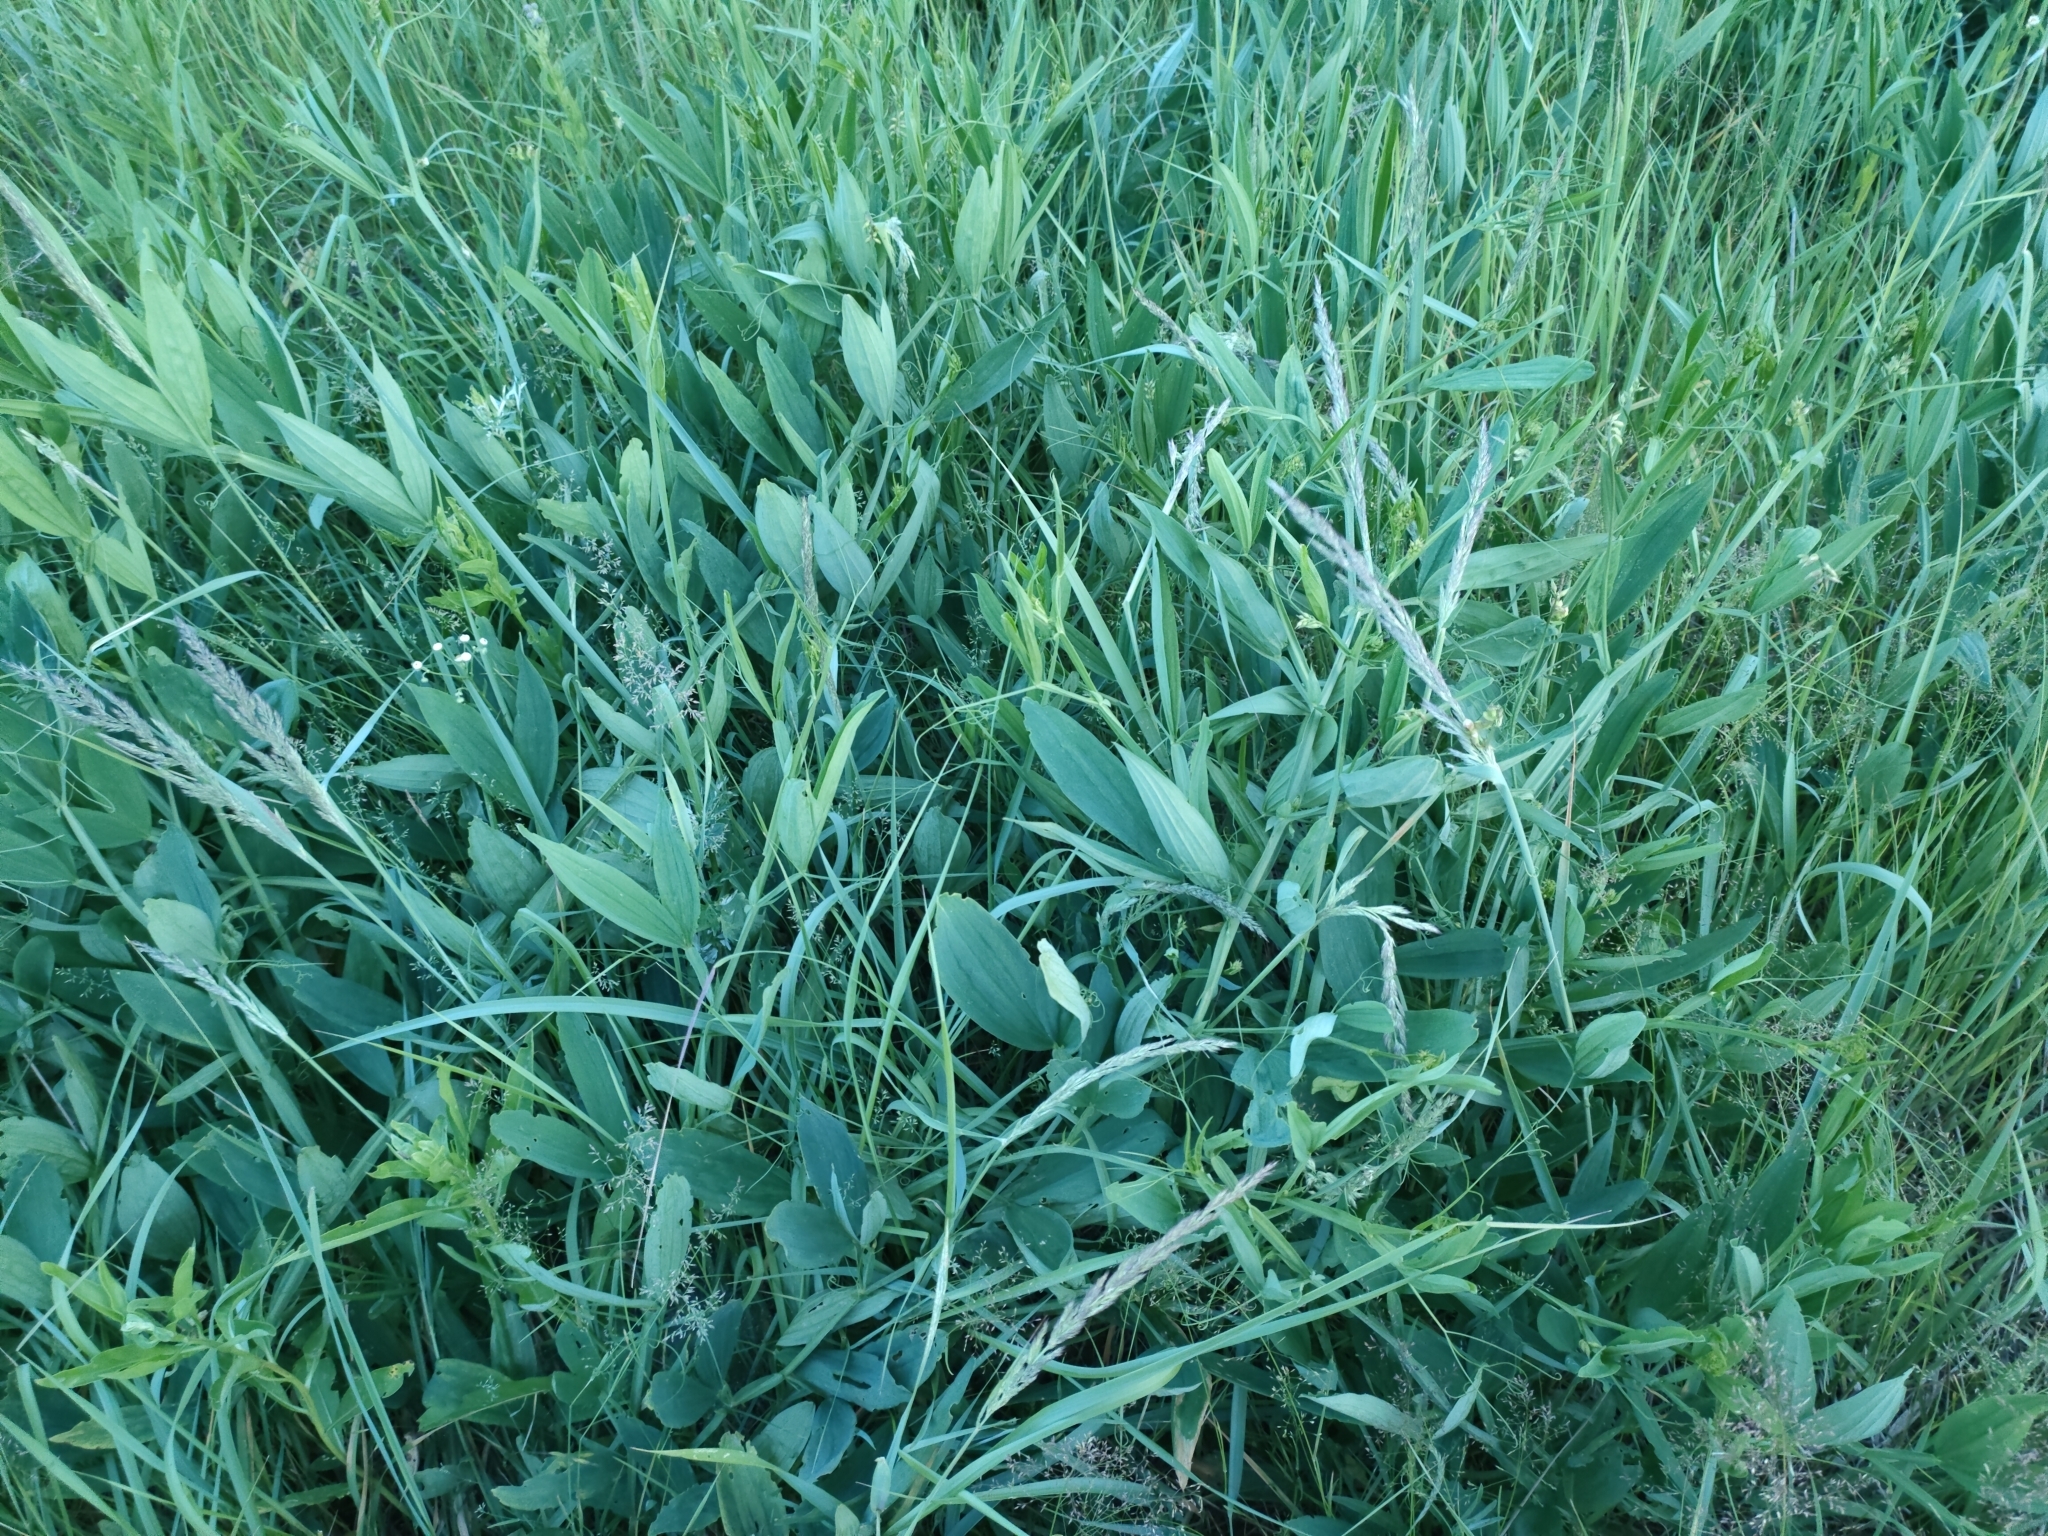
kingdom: Plantae
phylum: Tracheophyta
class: Magnoliopsida
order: Fabales
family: Fabaceae
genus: Lathyrus
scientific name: Lathyrus sylvestris
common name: Flat pea
